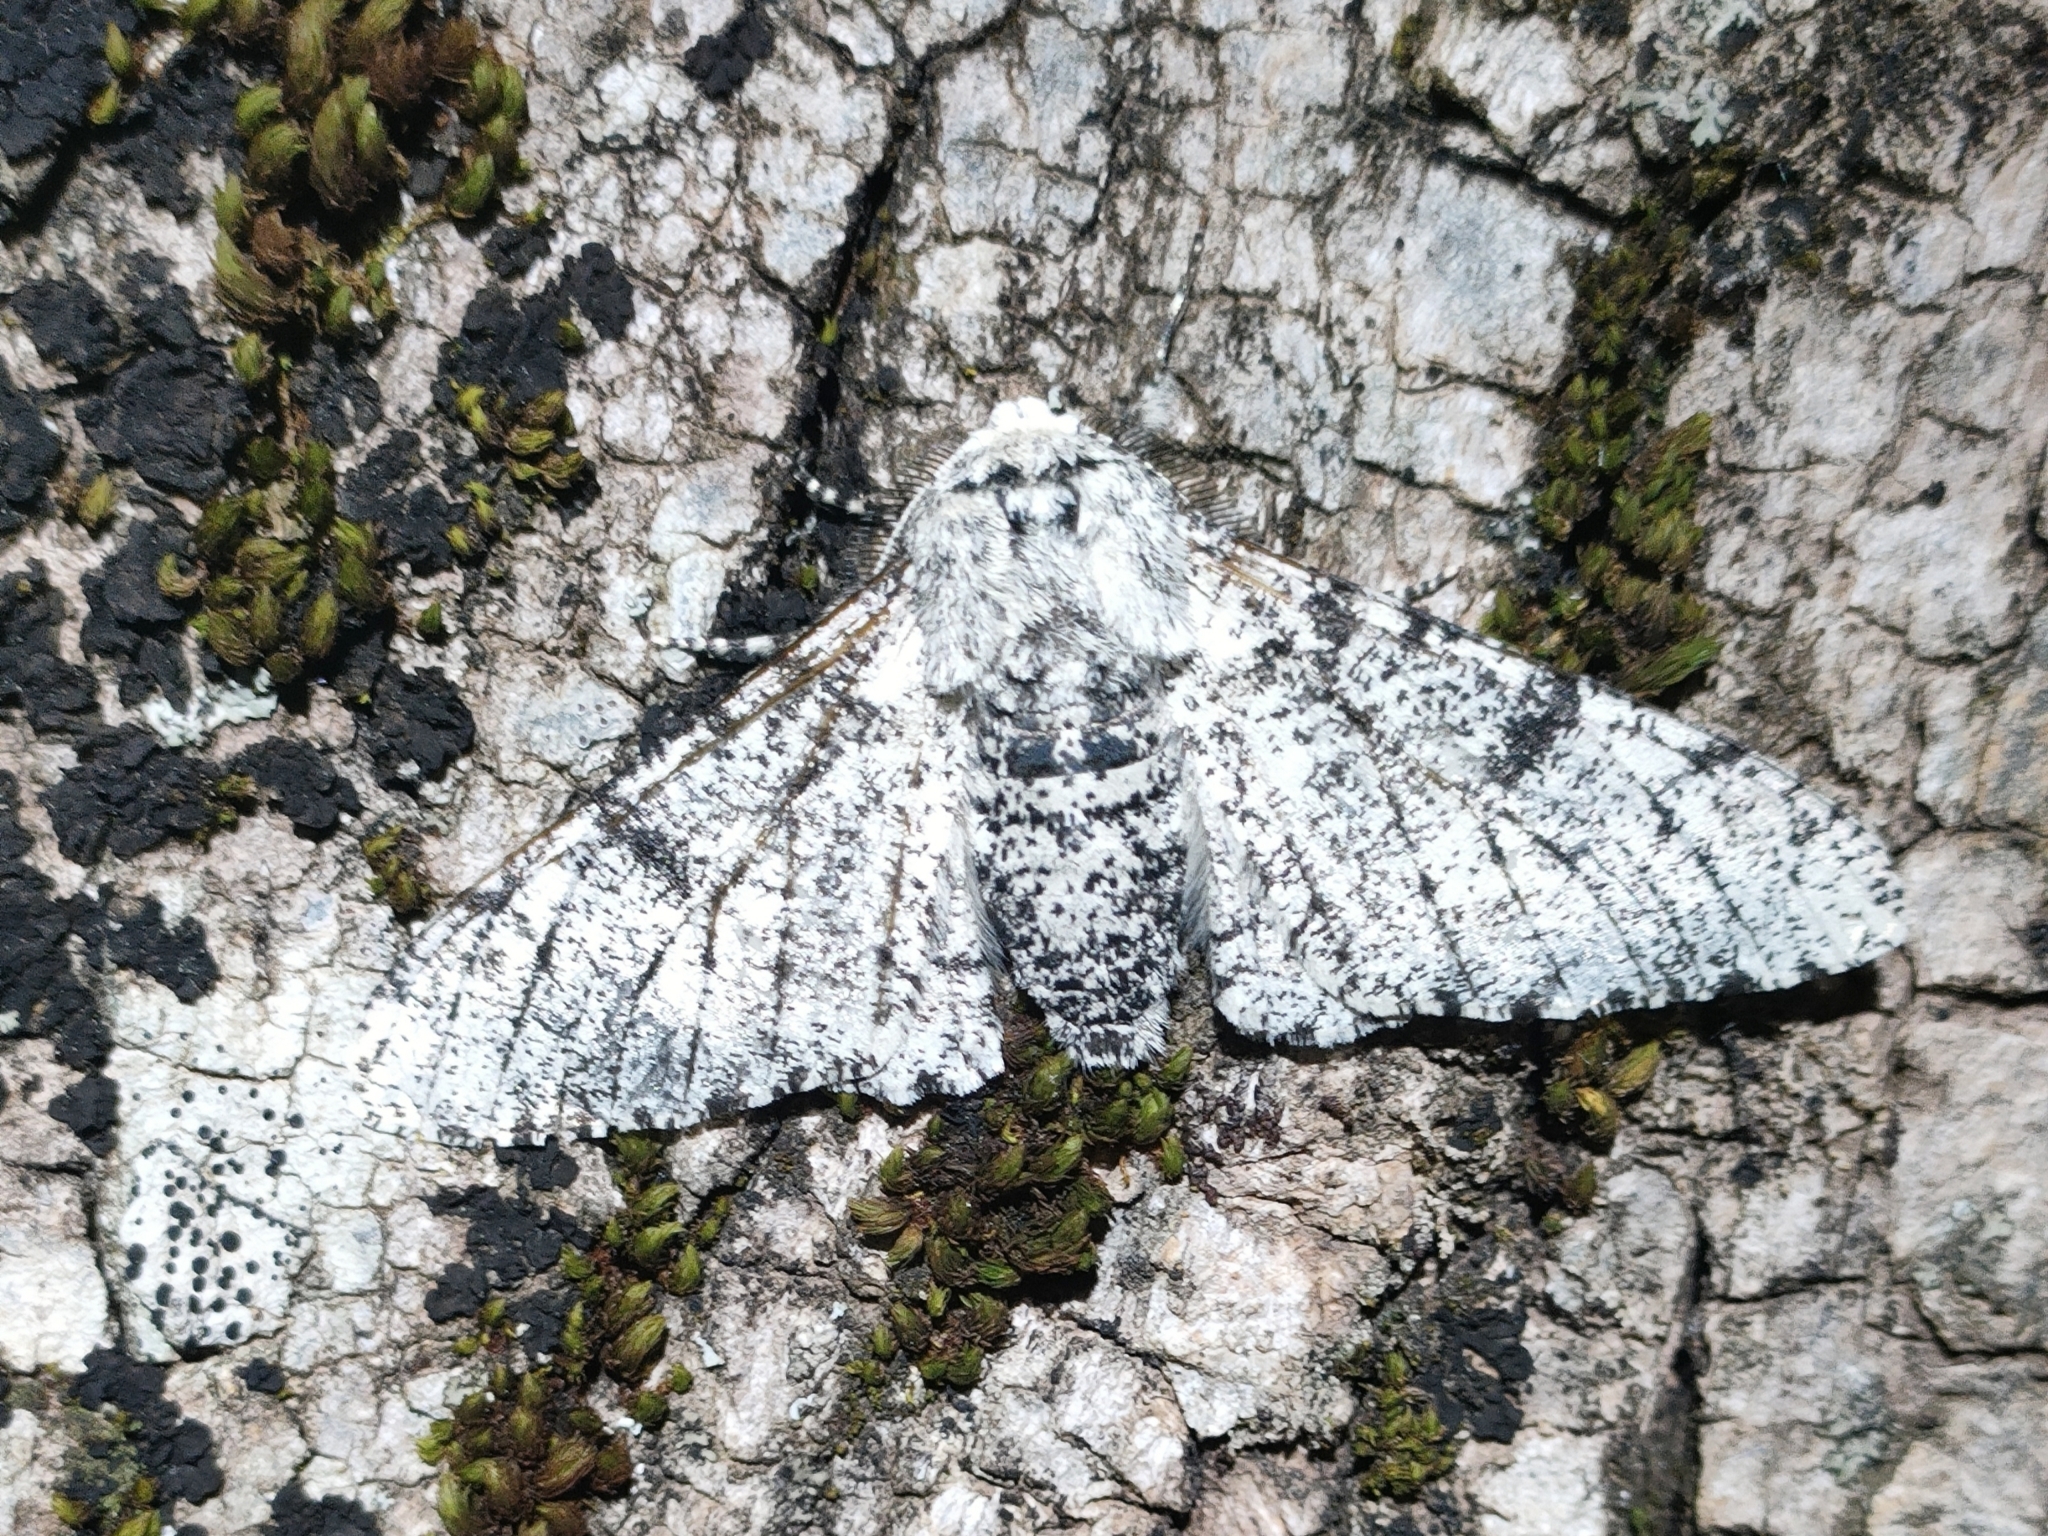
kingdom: Animalia
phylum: Arthropoda
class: Insecta
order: Lepidoptera
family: Geometridae
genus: Biston
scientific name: Biston betularia
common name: Peppered moth
